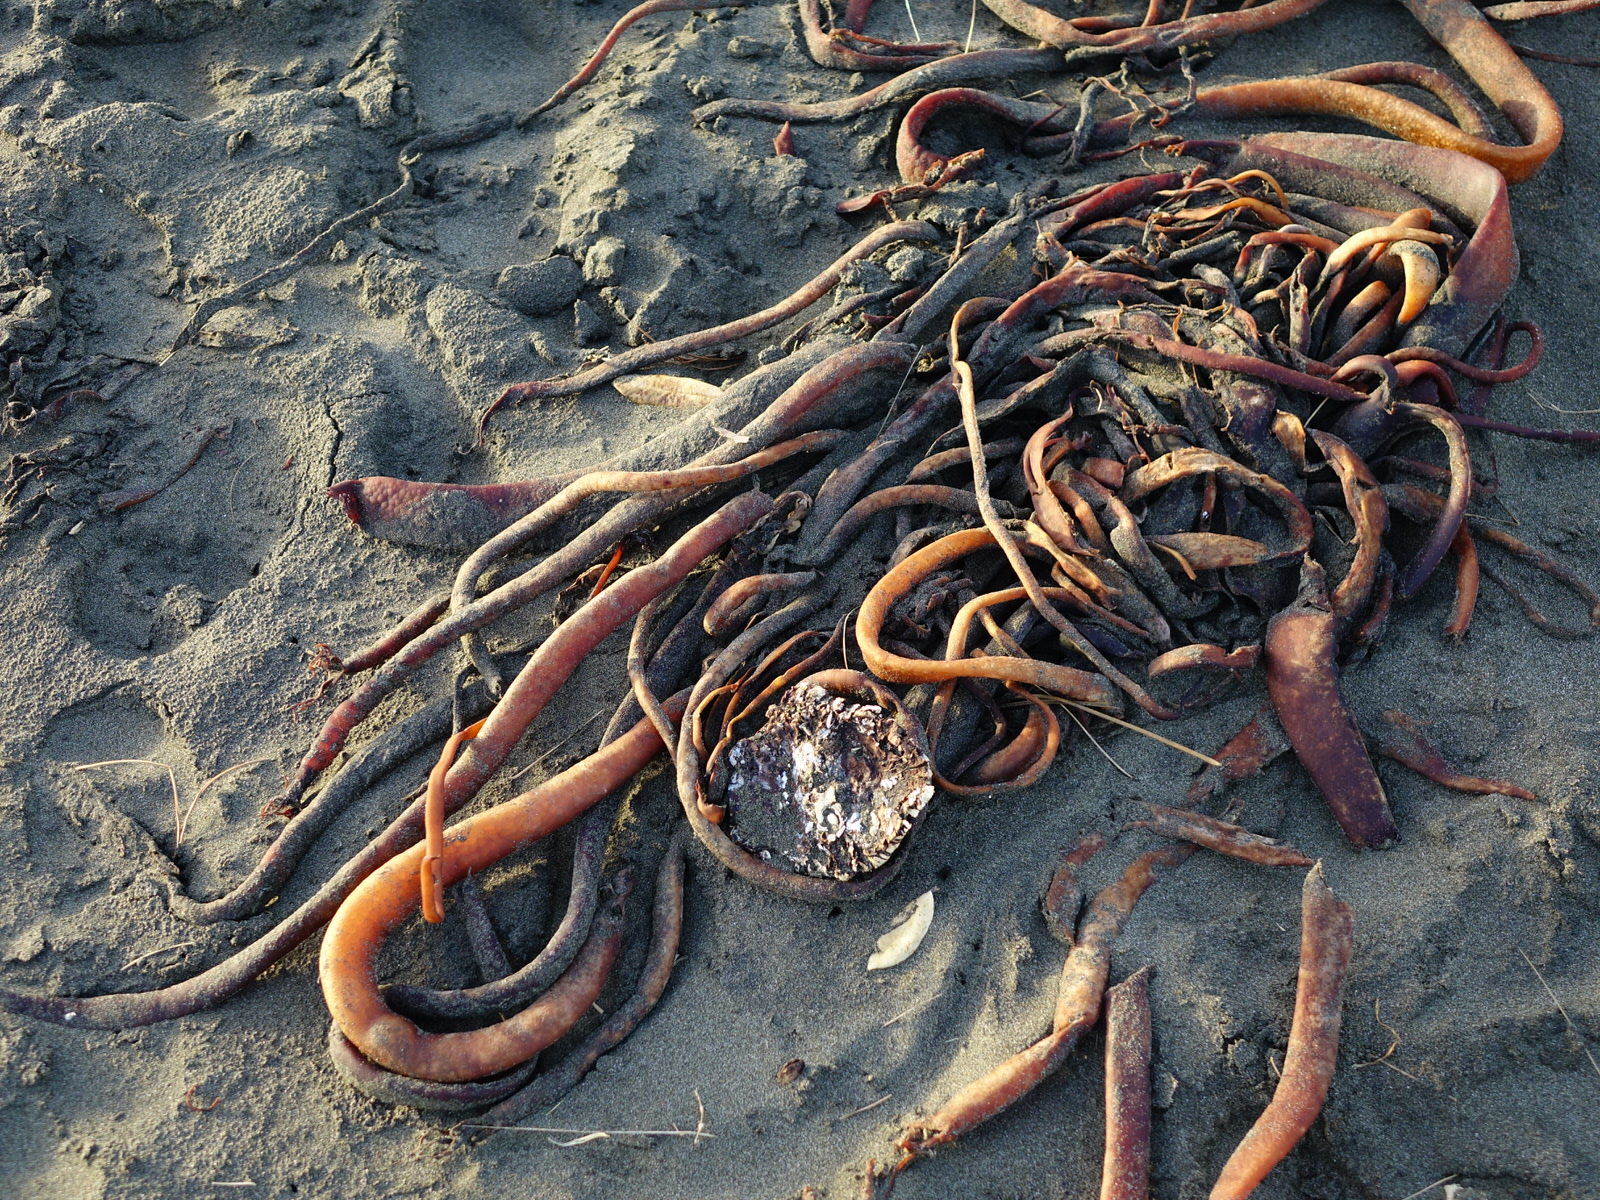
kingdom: Chromista
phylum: Ochrophyta
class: Phaeophyceae
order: Fucales
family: Durvillaeaceae
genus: Durvillaea
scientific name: Durvillaea antarctica
